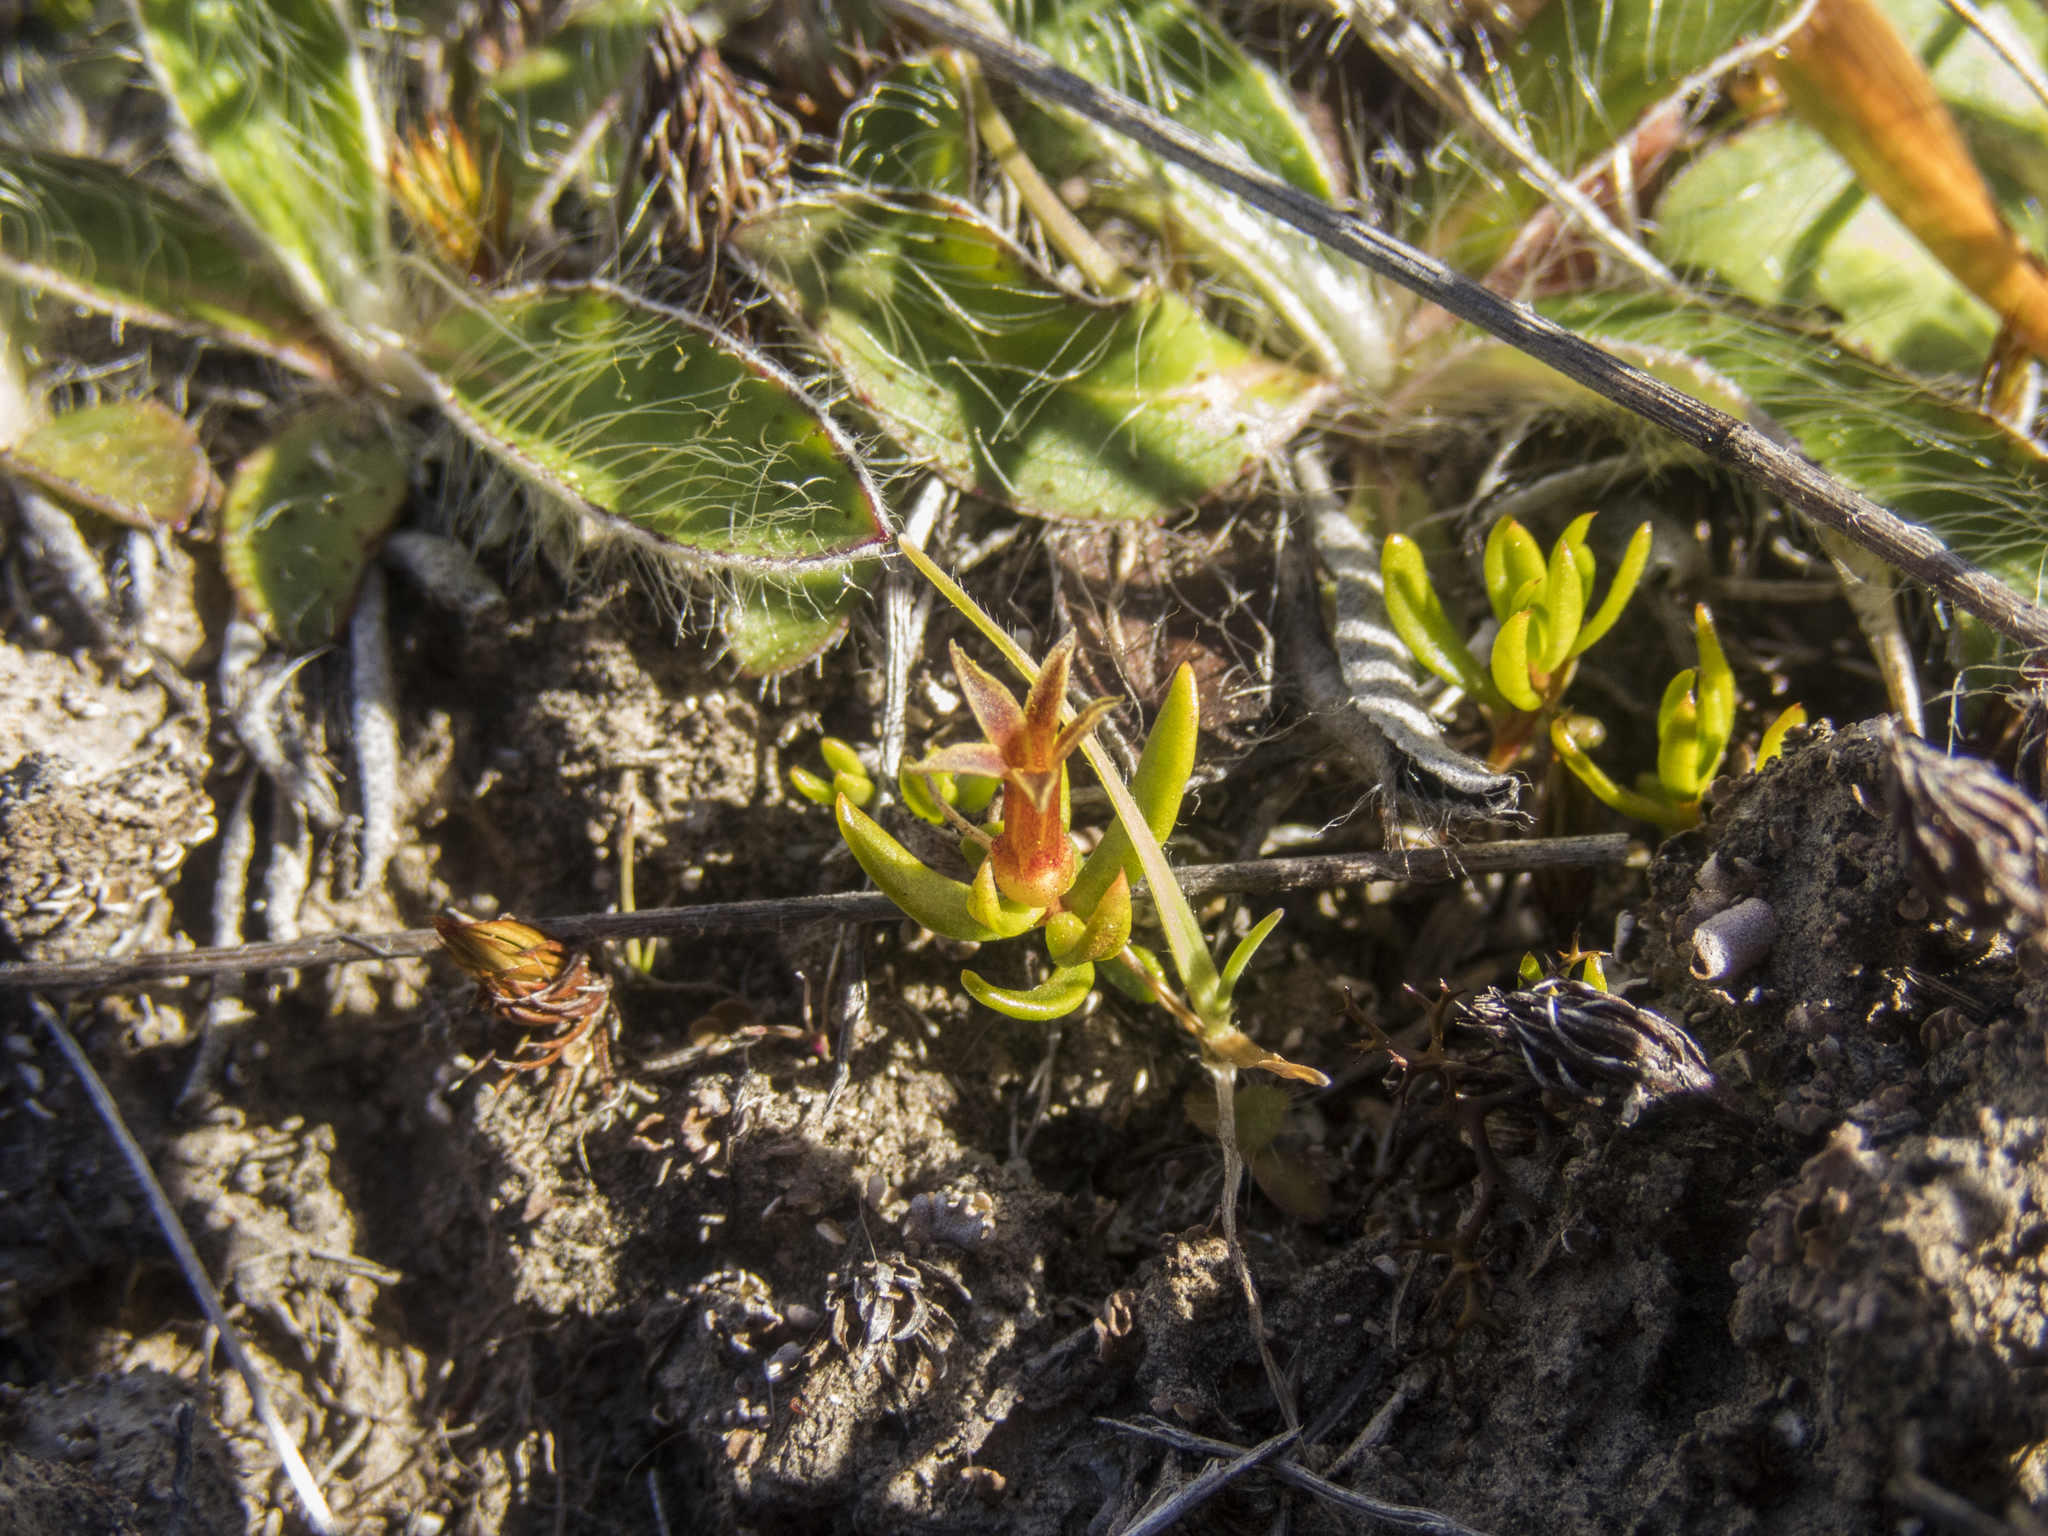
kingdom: Plantae
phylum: Tracheophyta
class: Magnoliopsida
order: Celastrales
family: Celastraceae
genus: Stackhousia
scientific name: Stackhousia minima
